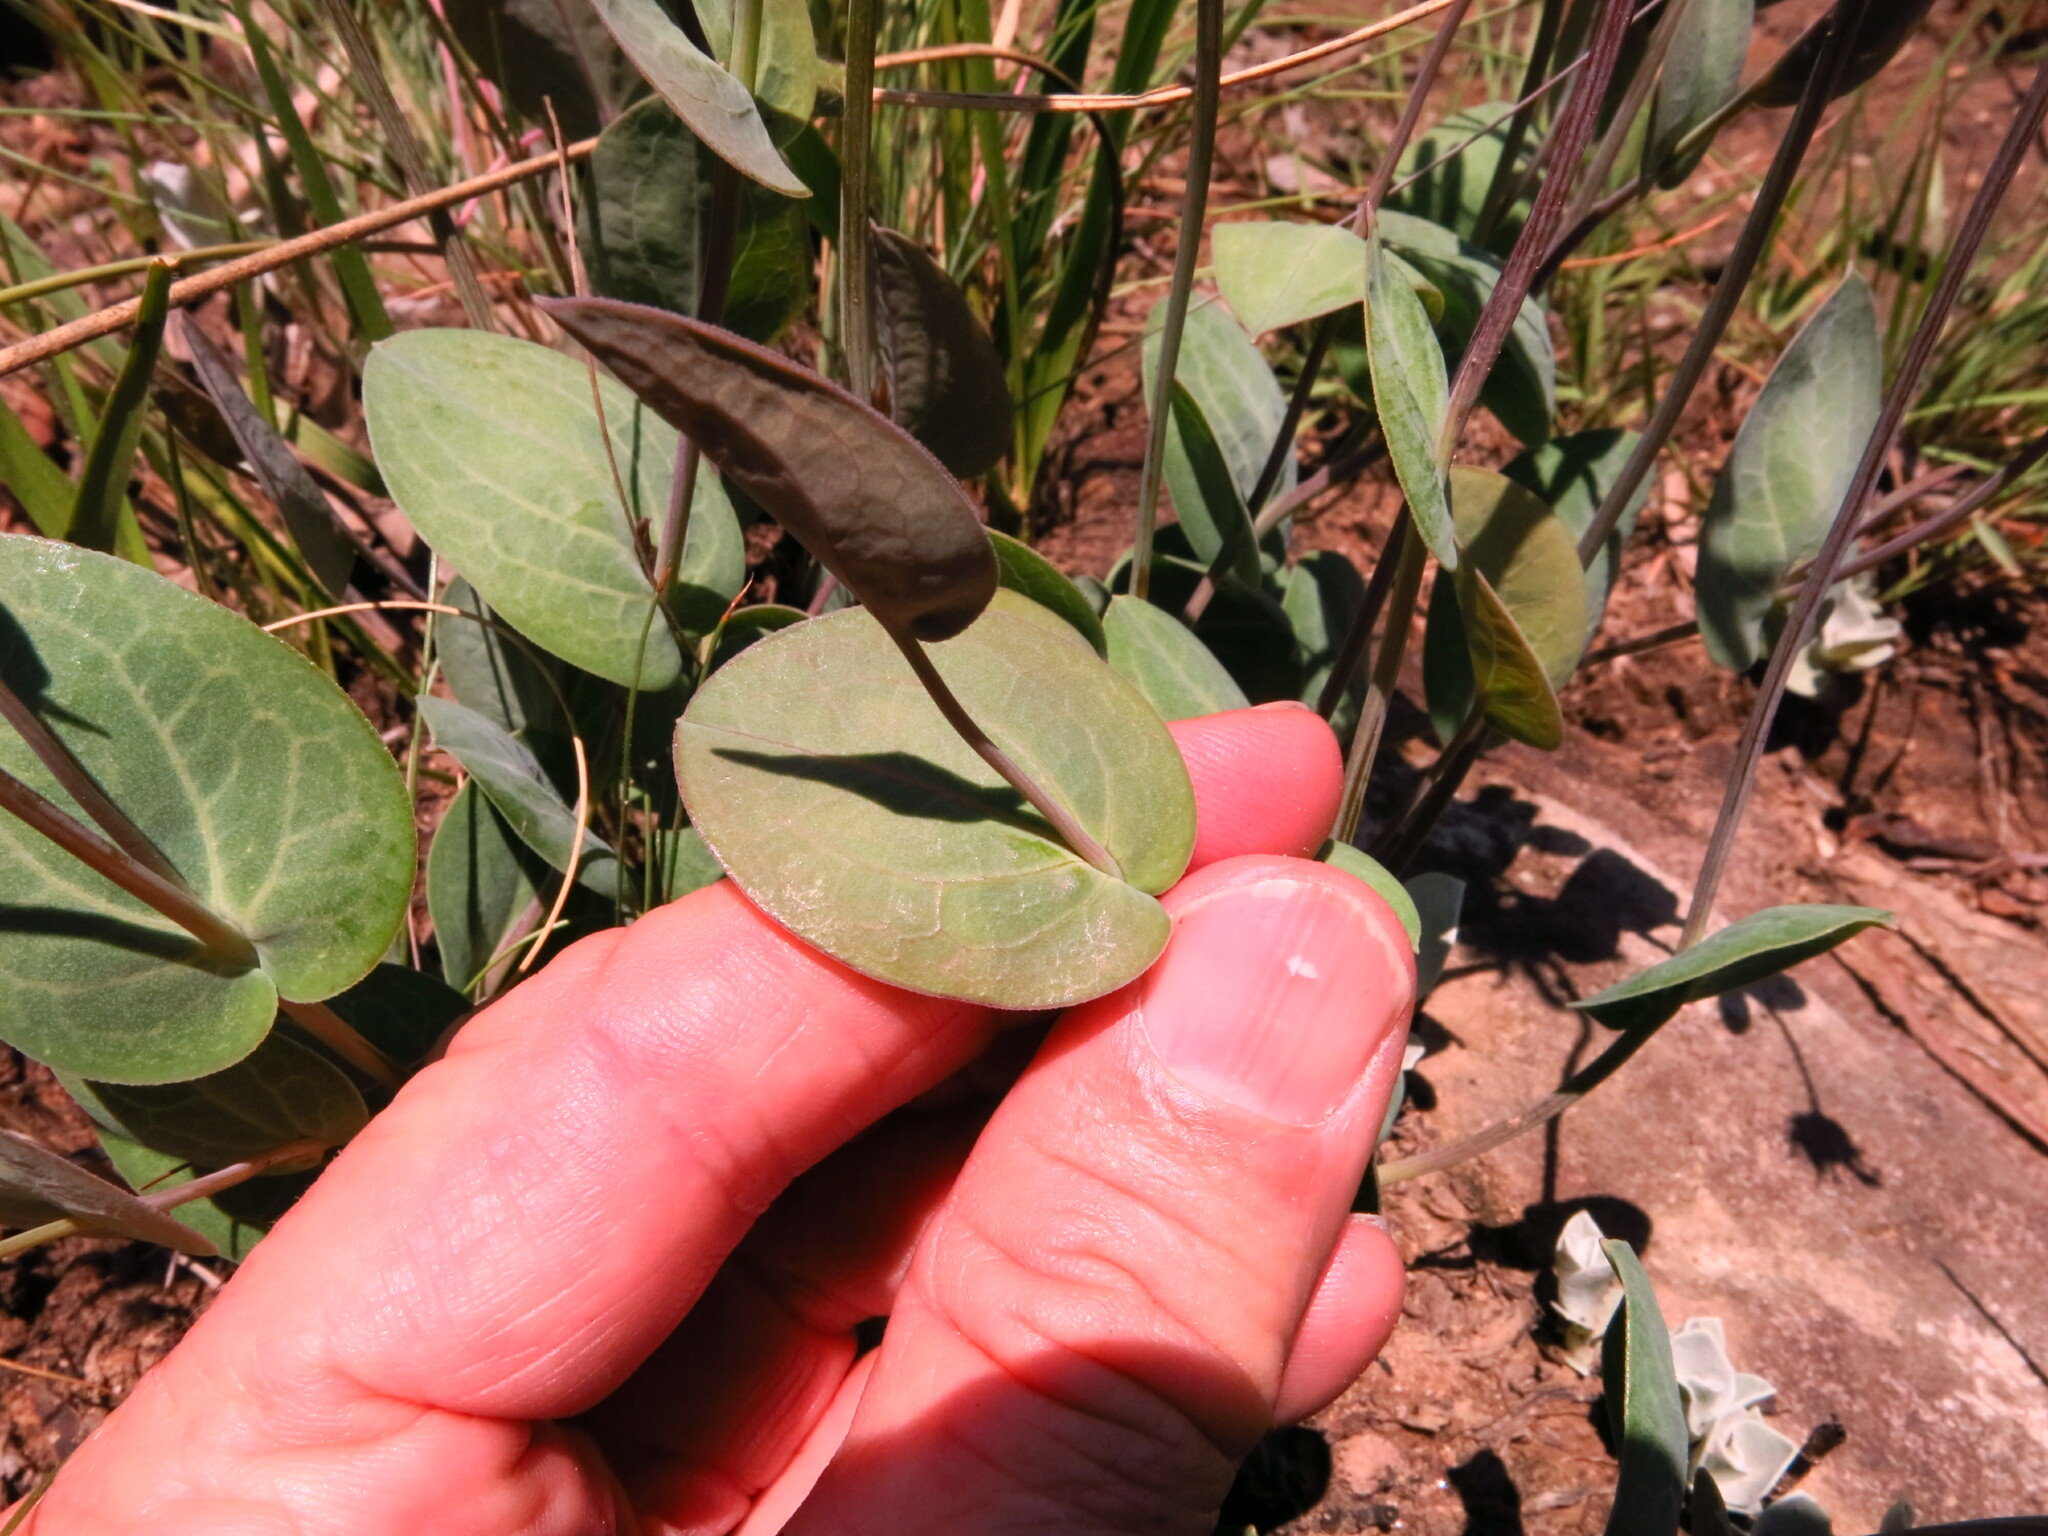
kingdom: Plantae
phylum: Tracheophyta
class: Magnoliopsida
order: Asterales
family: Asteraceae
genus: Afroaster
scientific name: Afroaster perfoliatus
